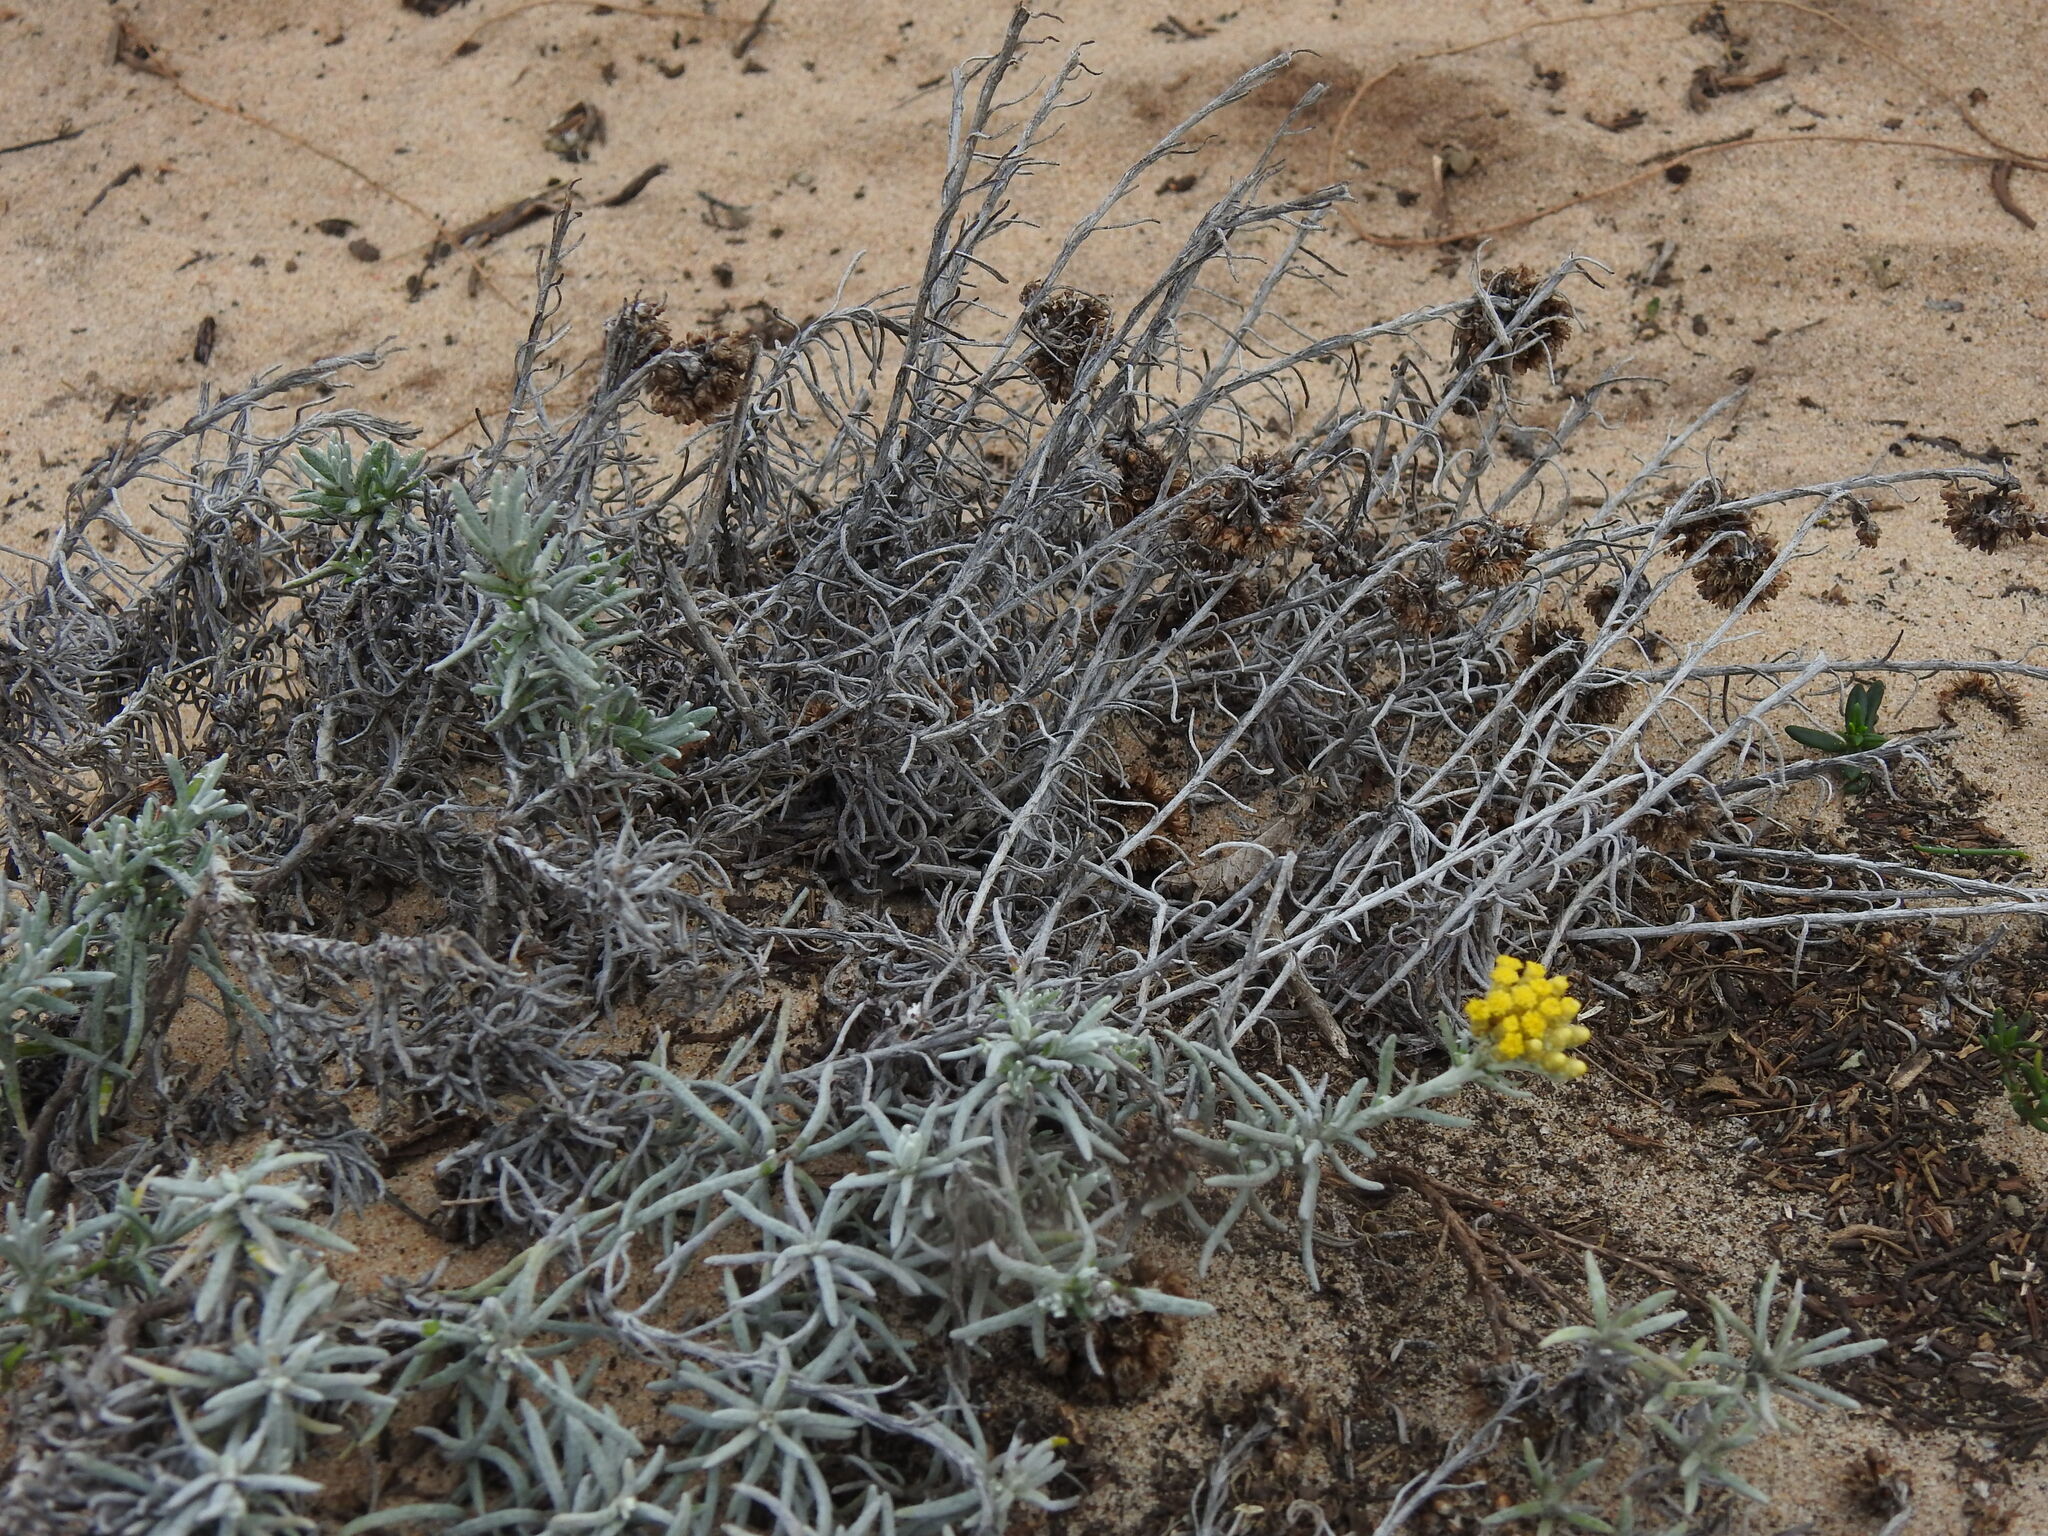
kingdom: Plantae
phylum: Tracheophyta
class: Magnoliopsida
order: Asterales
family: Asteraceae
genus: Helichrysum
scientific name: Helichrysum serotinum
